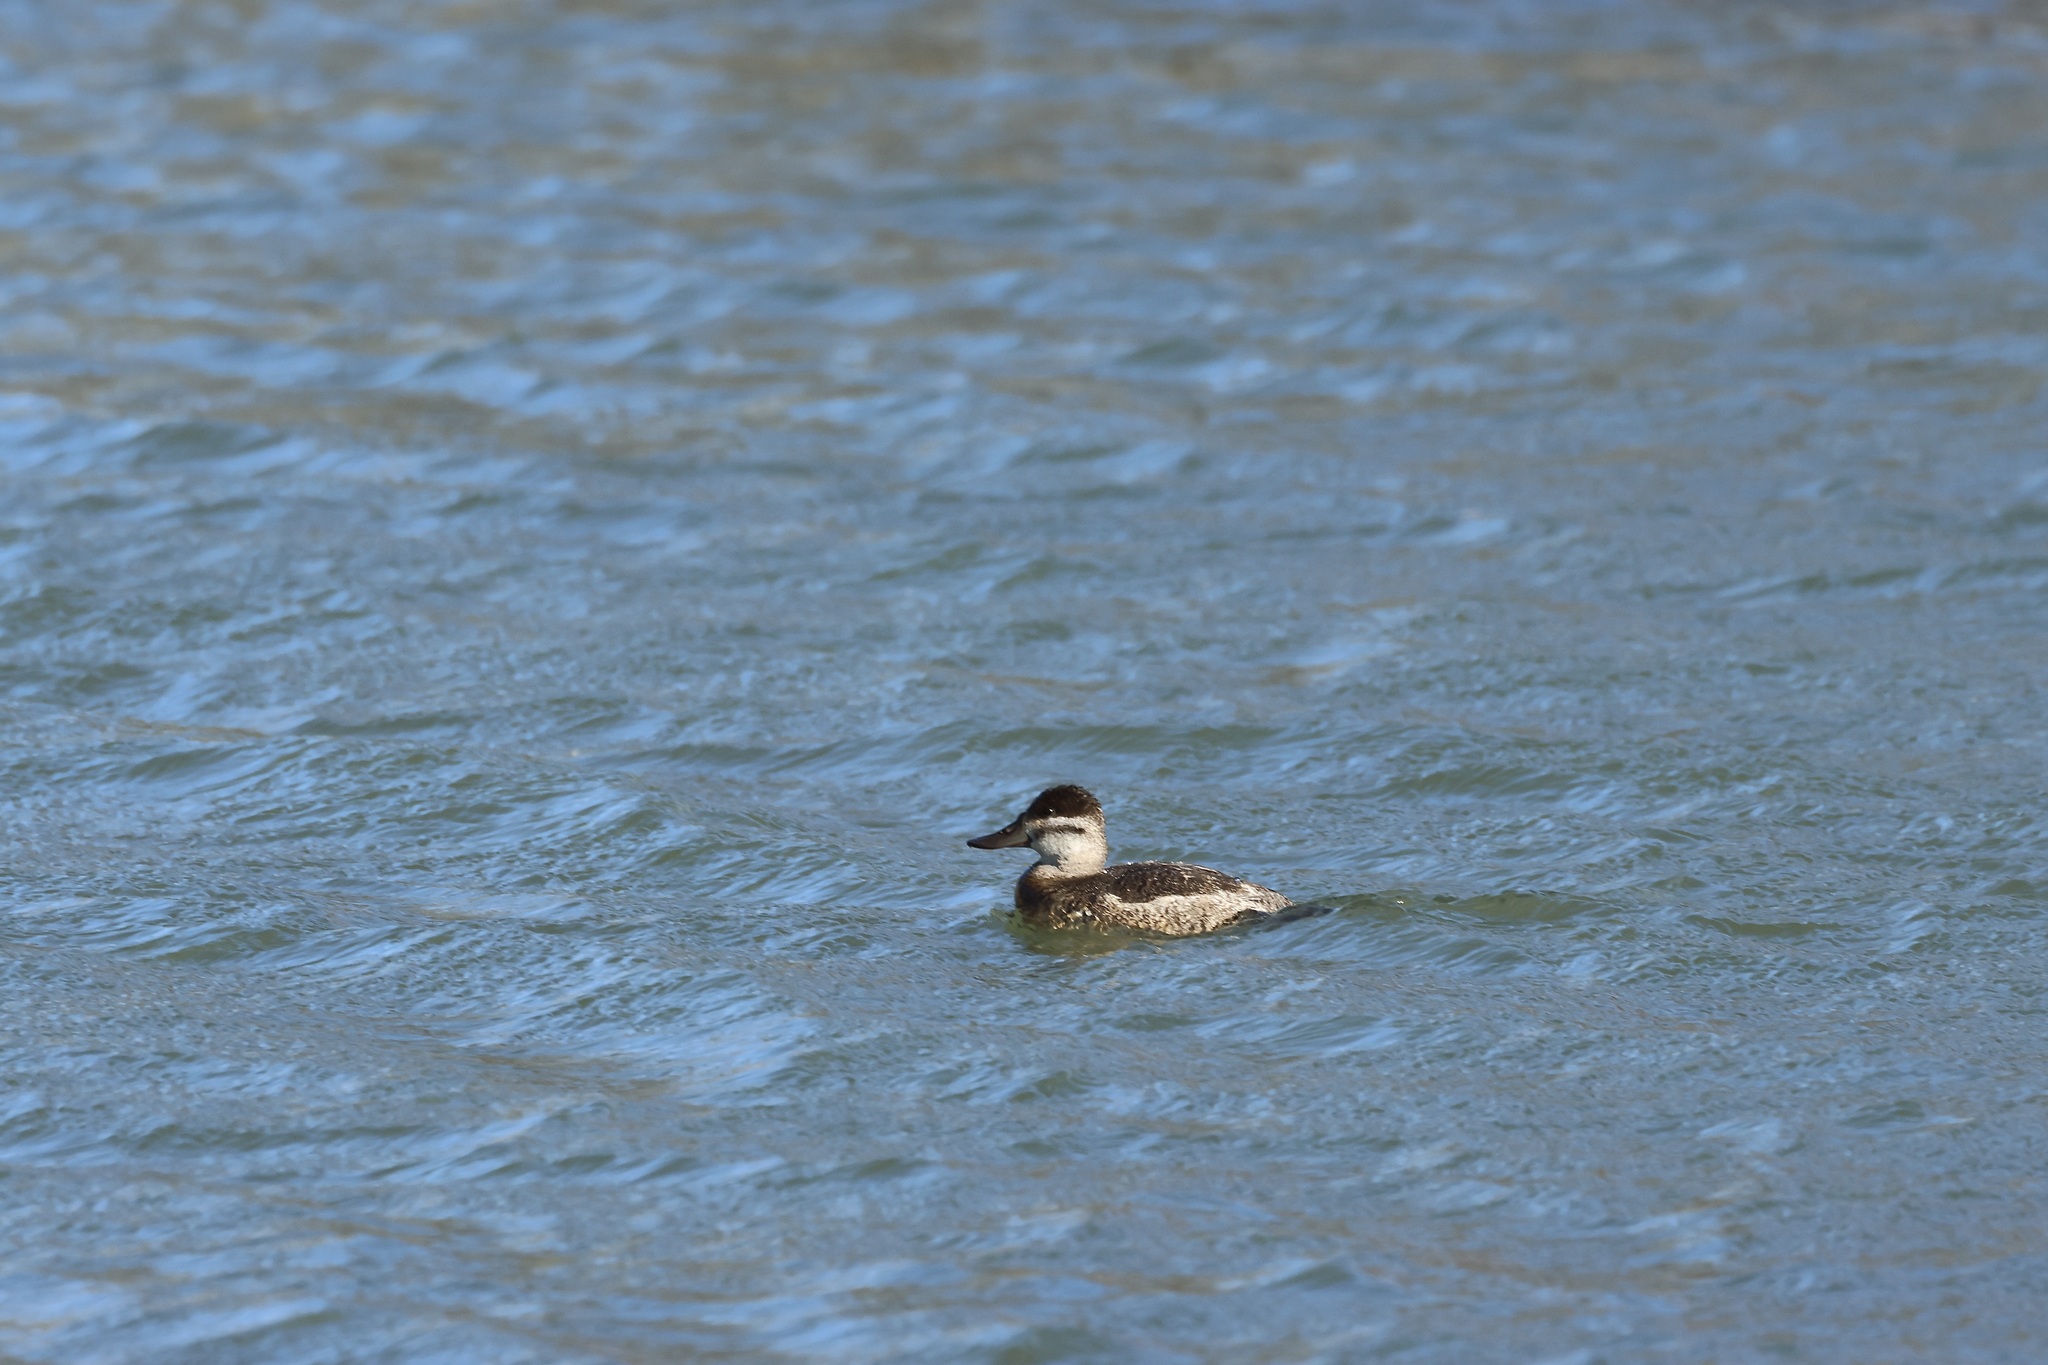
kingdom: Animalia
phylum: Chordata
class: Aves
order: Anseriformes
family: Anatidae
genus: Oxyura
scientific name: Oxyura jamaicensis
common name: Ruddy duck
